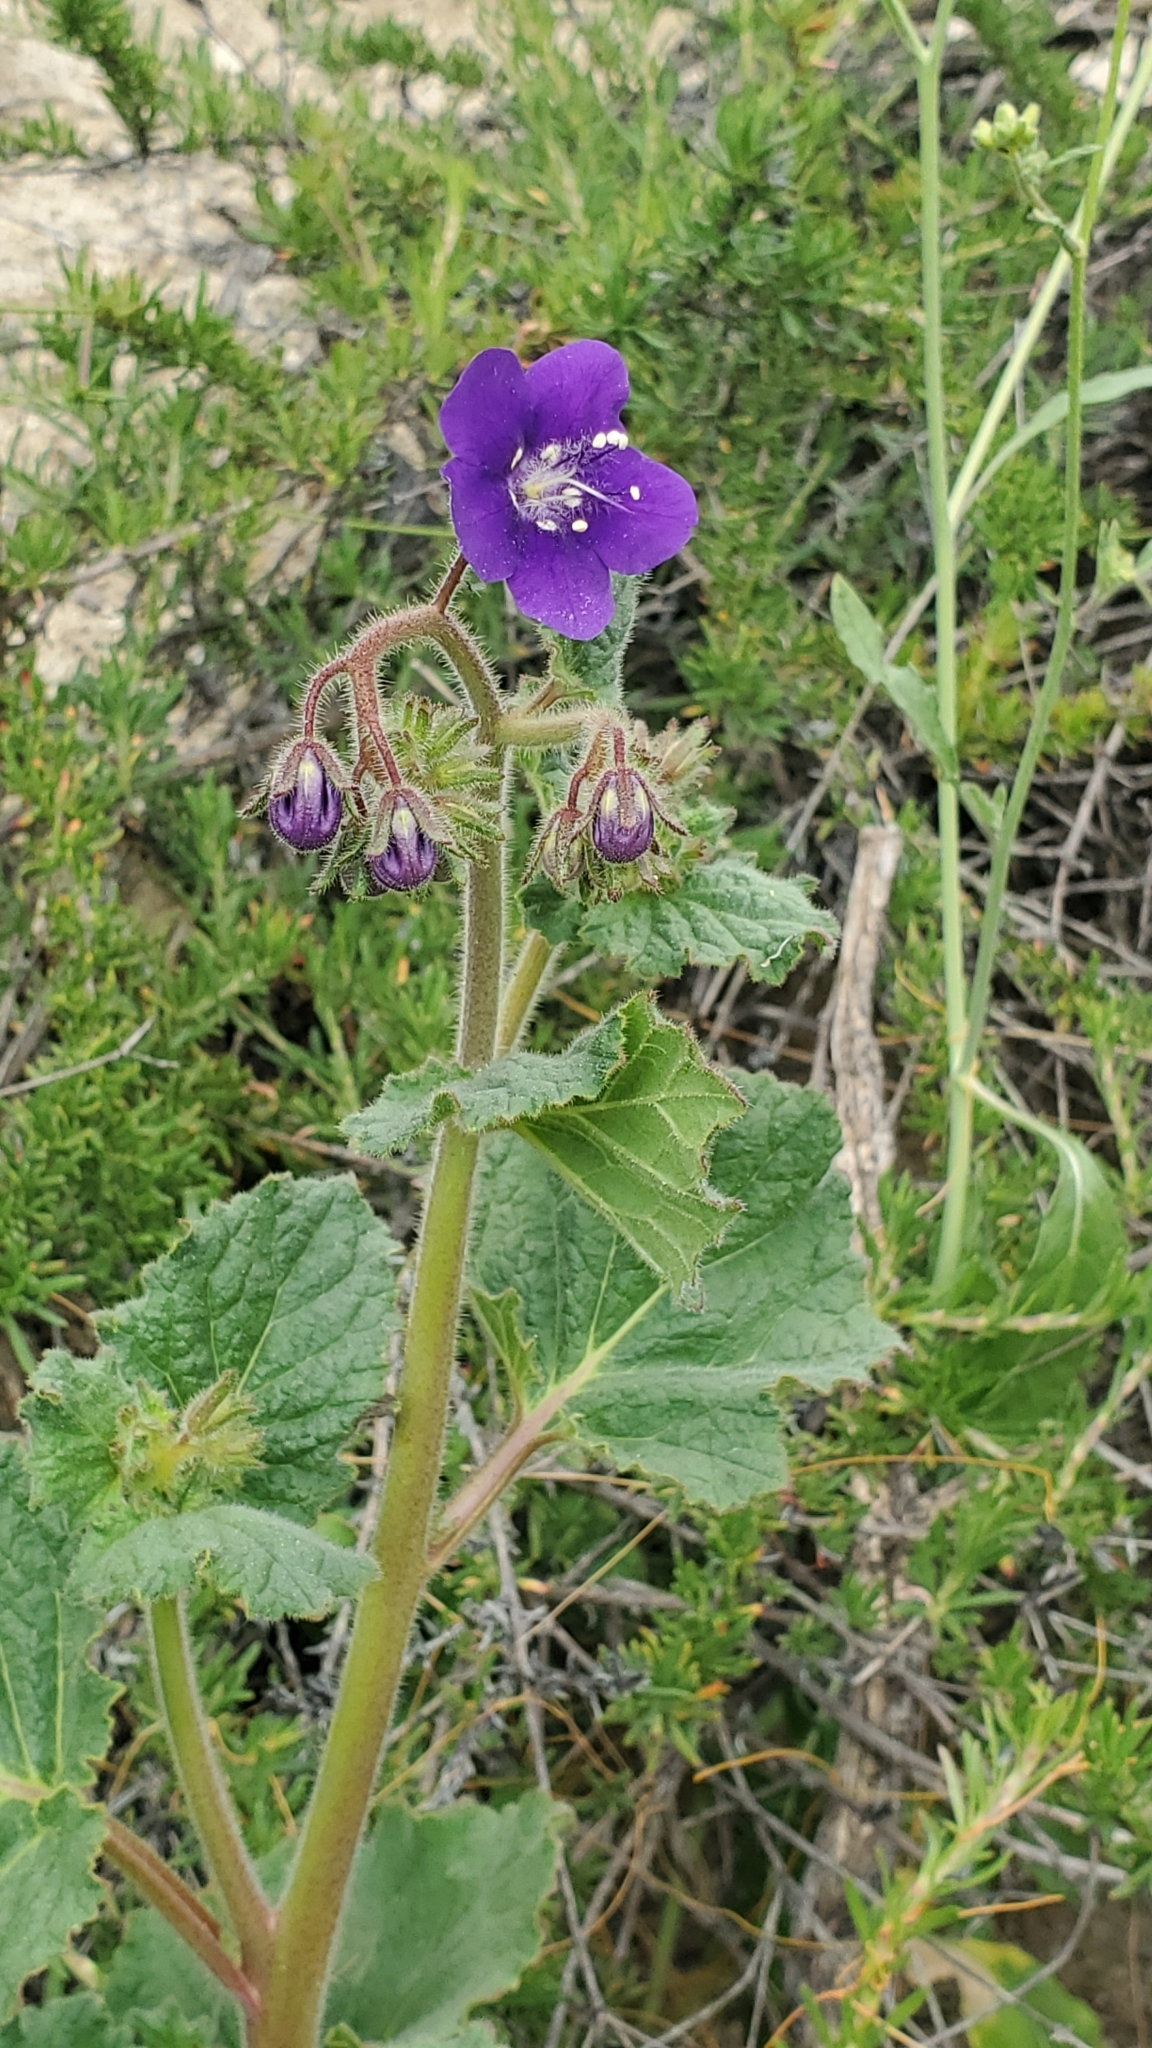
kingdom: Plantae
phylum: Tracheophyta
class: Magnoliopsida
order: Boraginales
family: Hydrophyllaceae
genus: Phacelia
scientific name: Phacelia parryi
